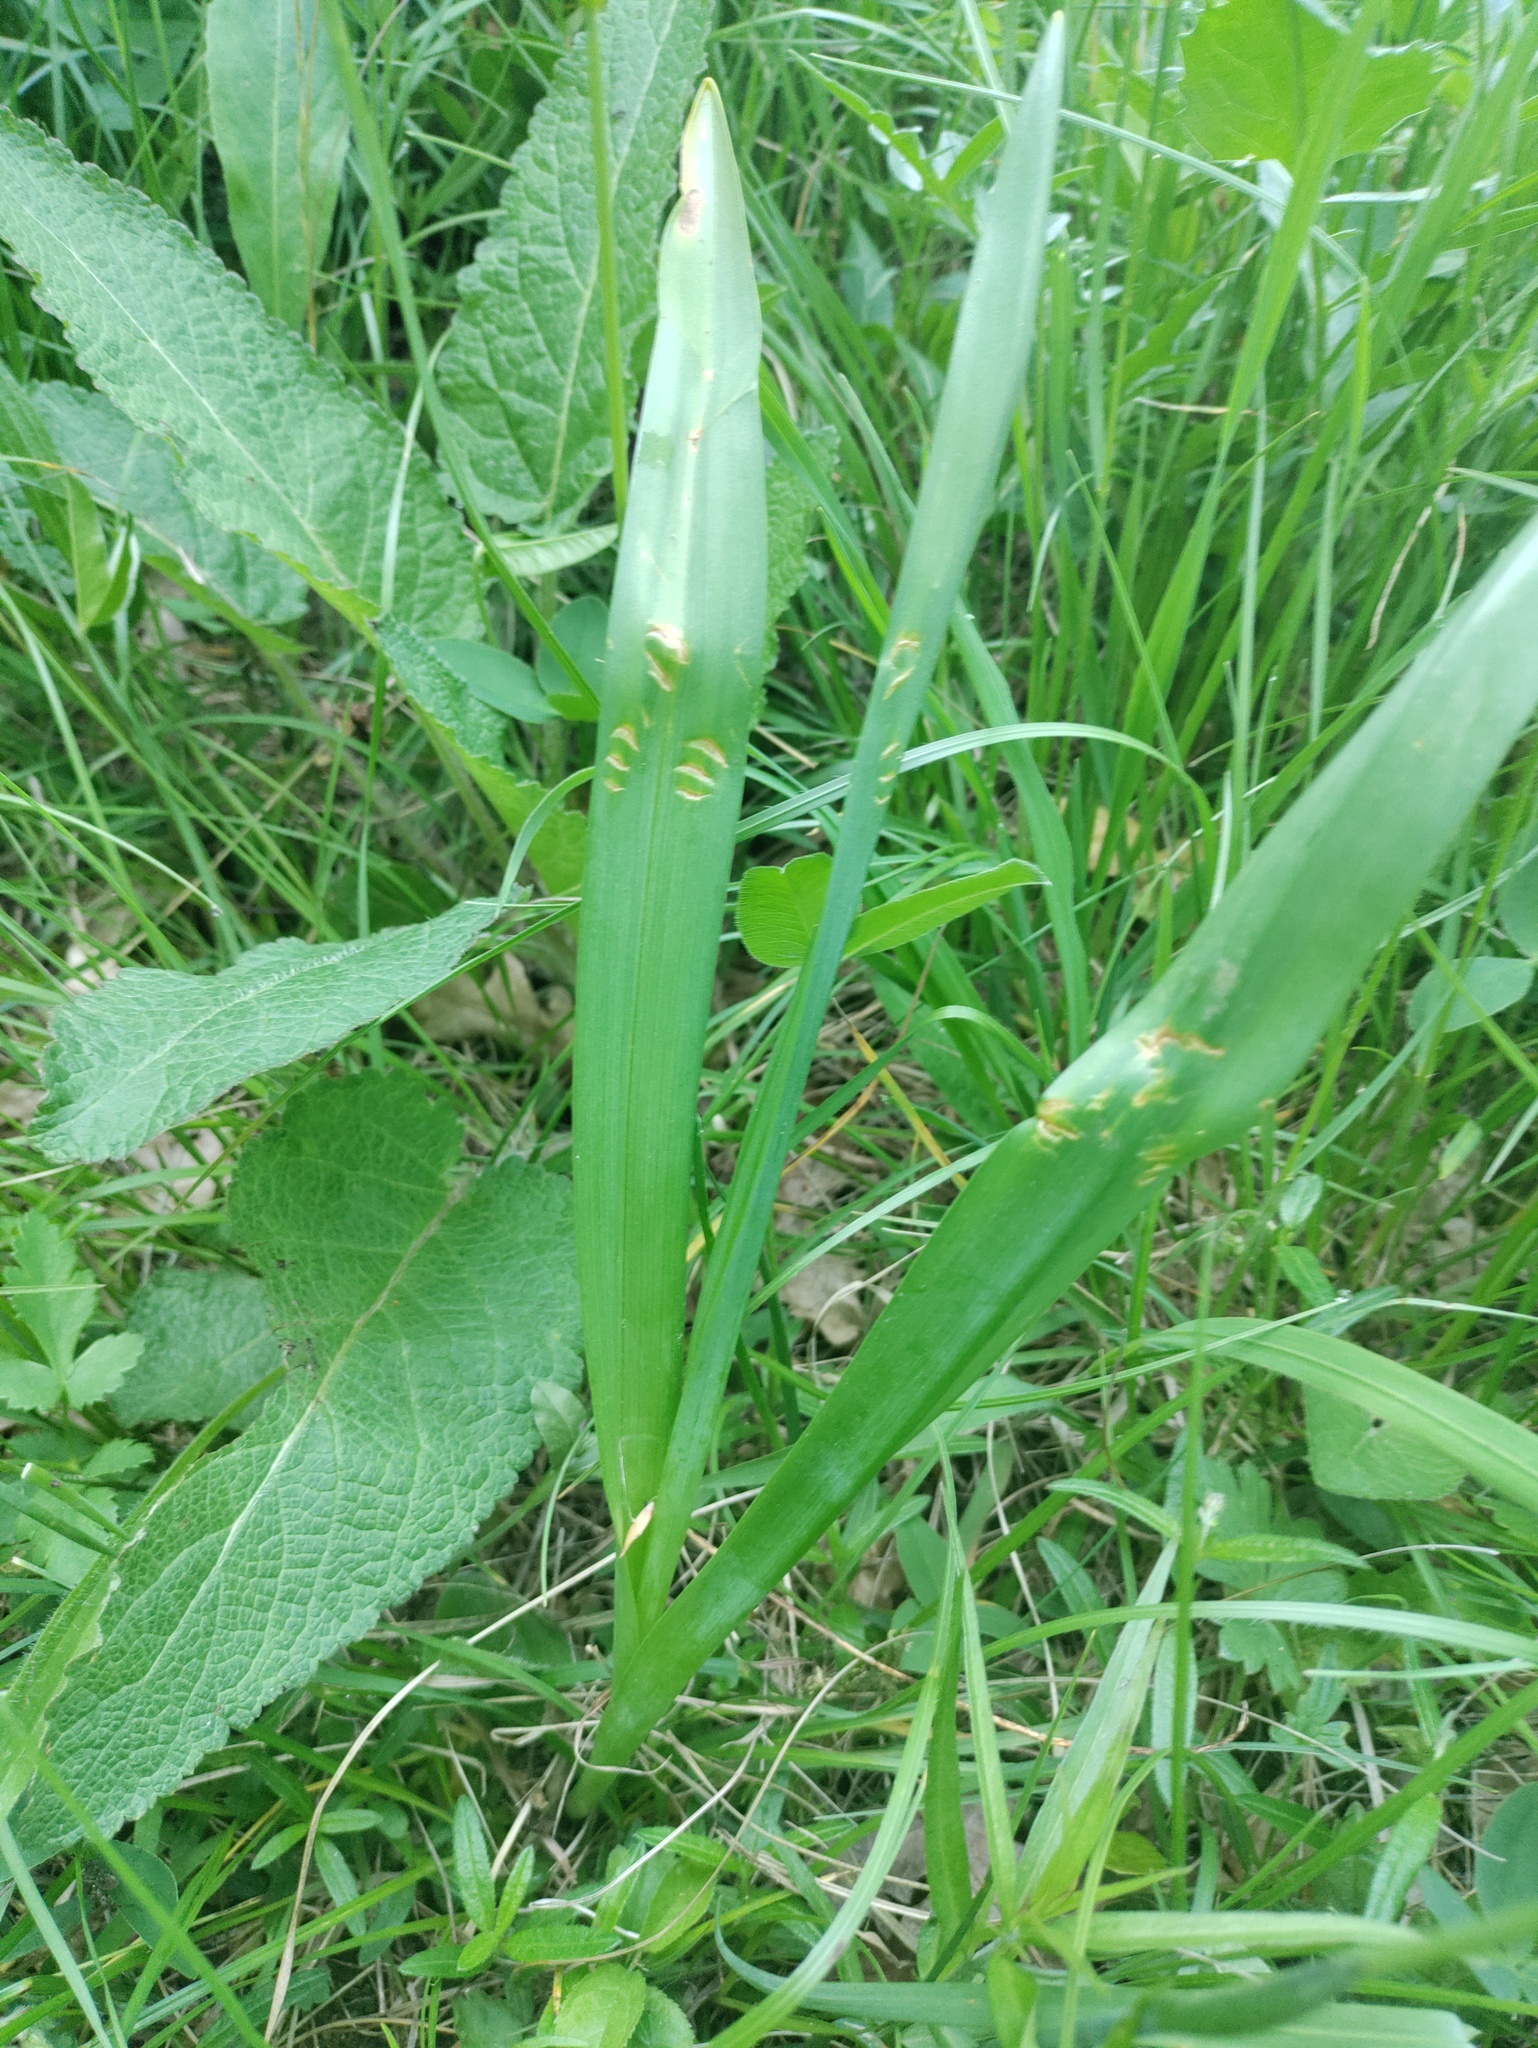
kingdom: Plantae
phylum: Tracheophyta
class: Liliopsida
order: Liliales
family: Colchicaceae
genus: Colchicum
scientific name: Colchicum autumnale
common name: Autumn crocus
